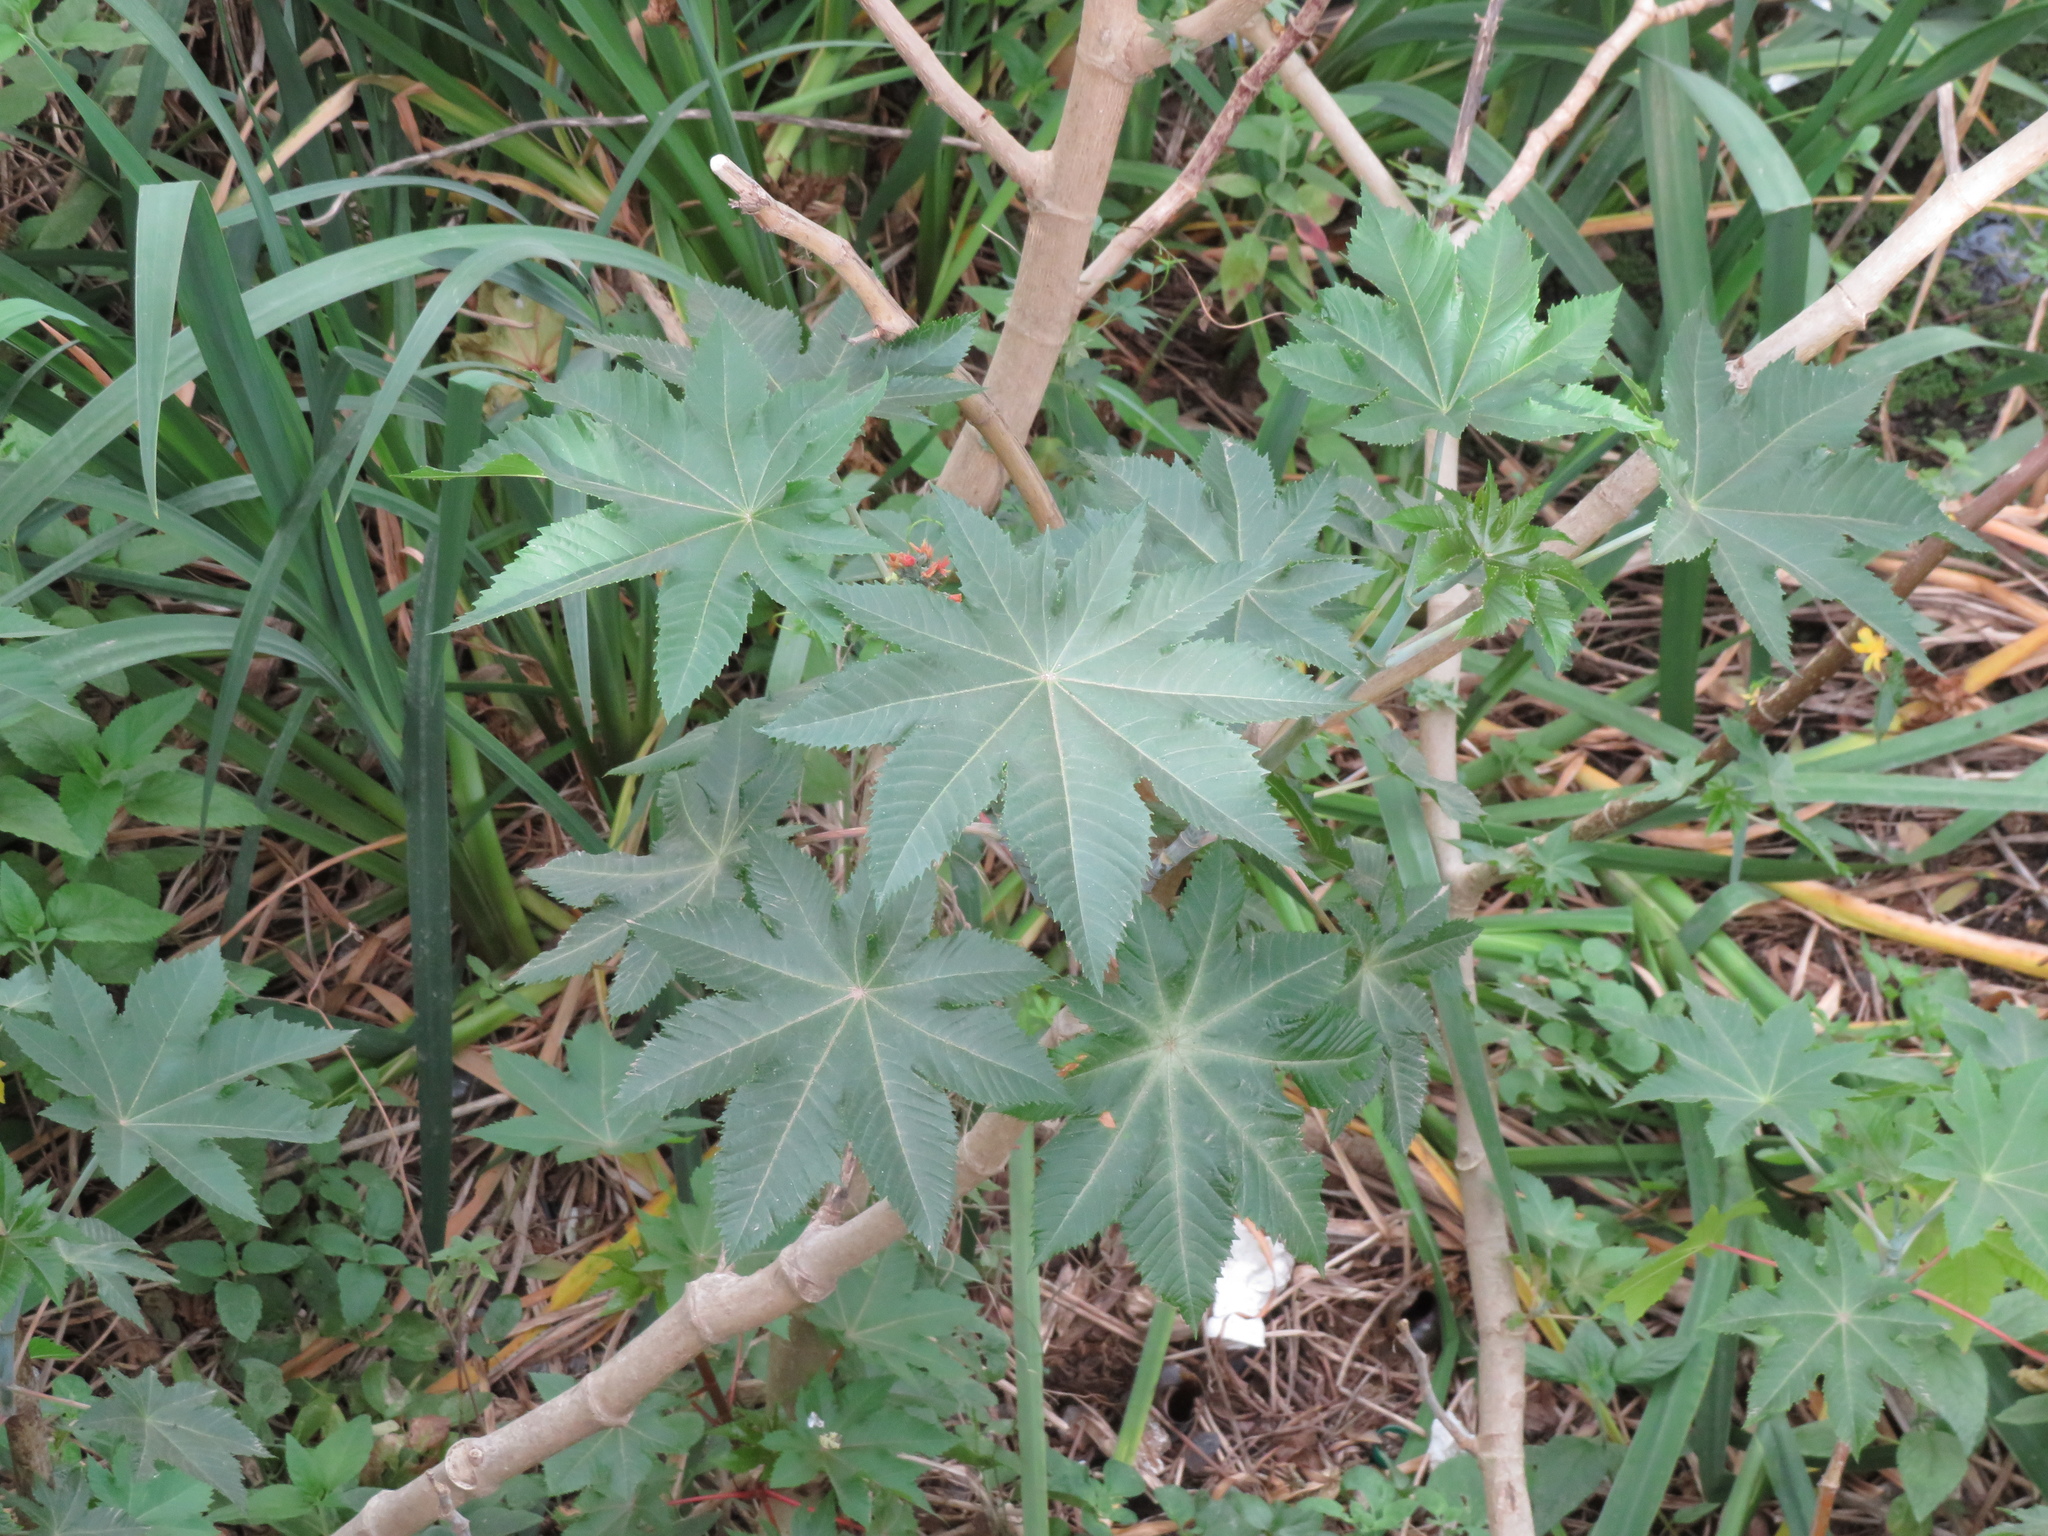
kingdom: Plantae
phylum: Tracheophyta
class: Magnoliopsida
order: Malpighiales
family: Euphorbiaceae
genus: Ricinus
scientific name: Ricinus communis
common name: Castor-oil-plant
